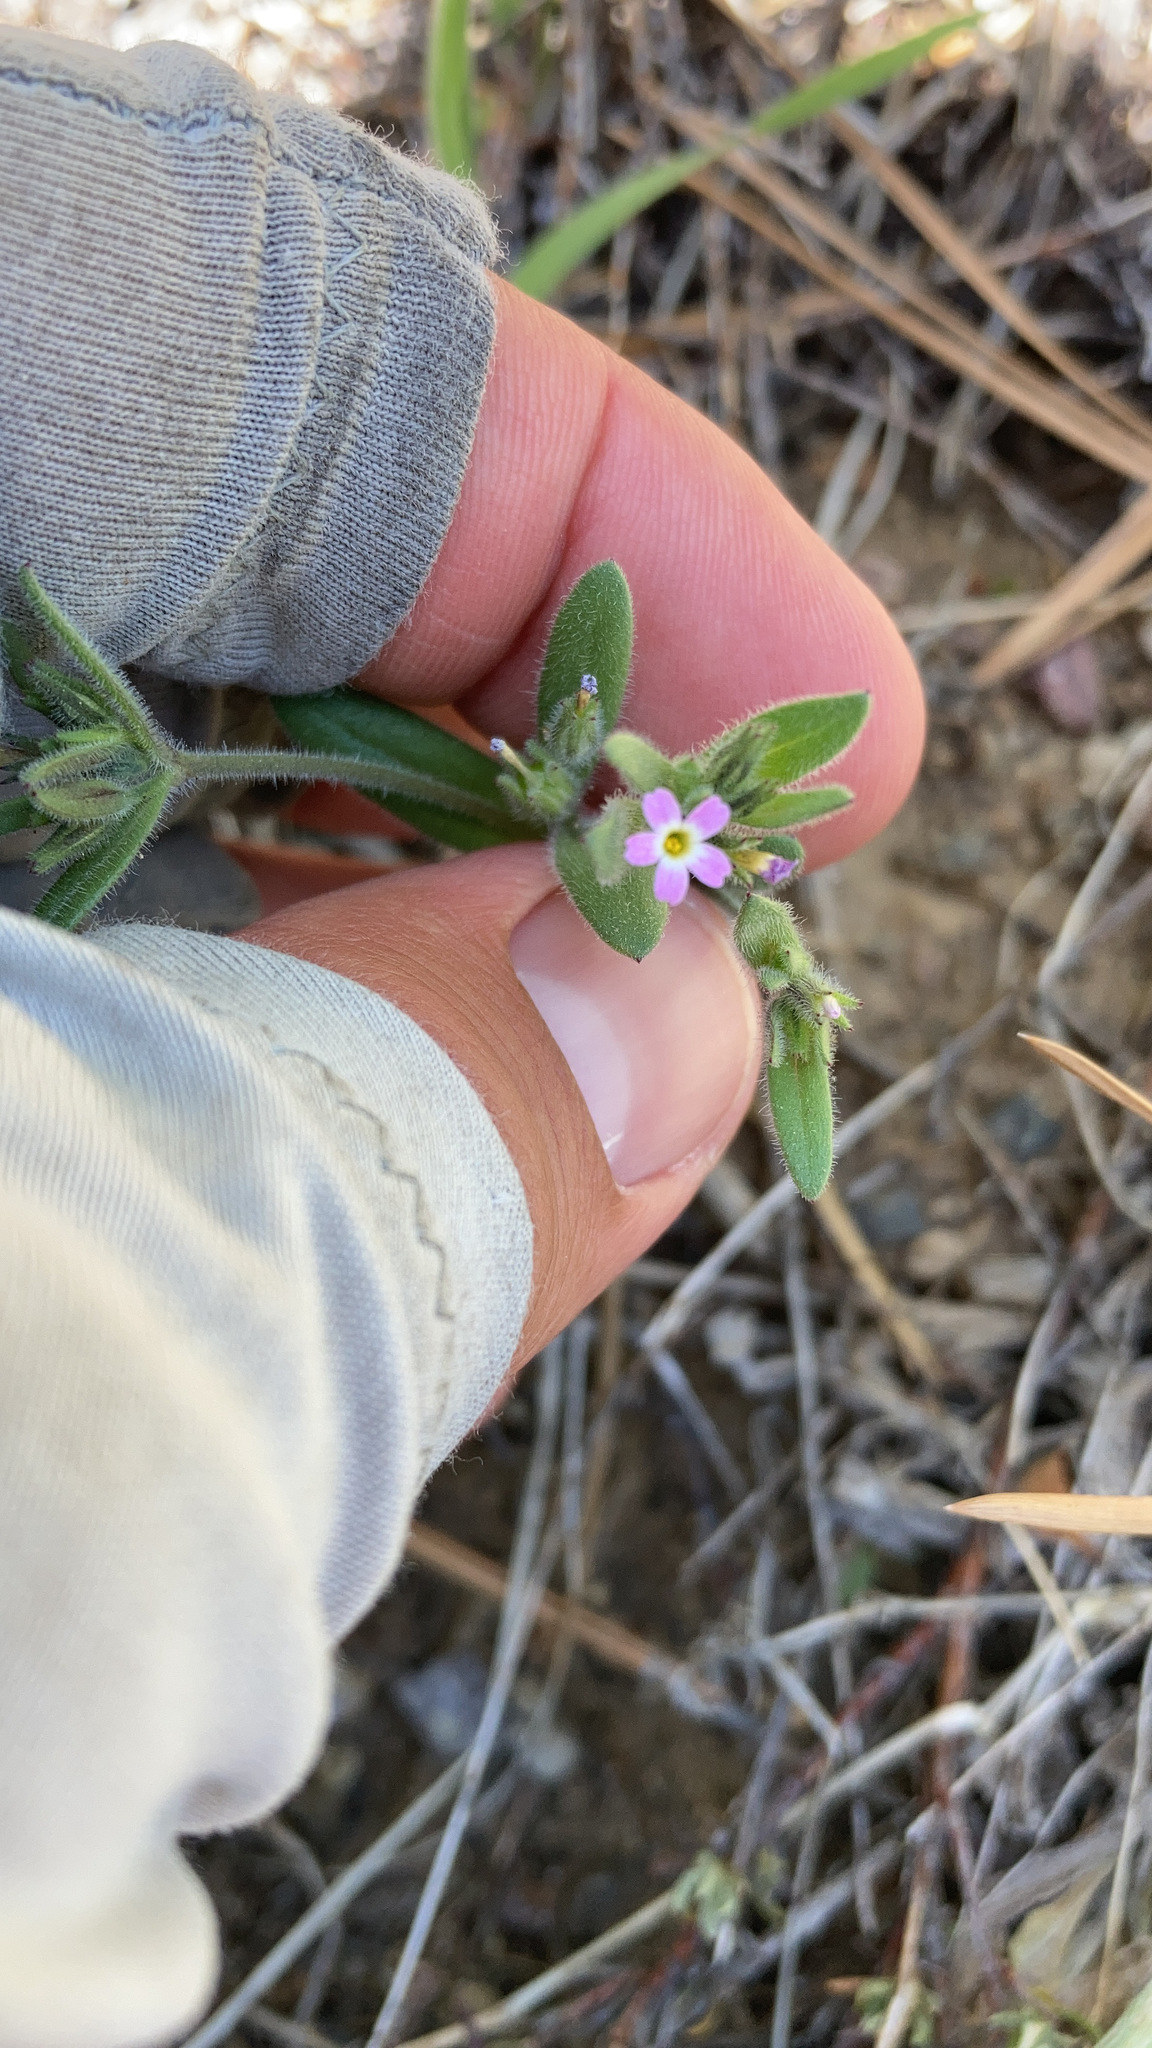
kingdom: Plantae
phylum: Tracheophyta
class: Magnoliopsida
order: Ericales
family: Polemoniaceae
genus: Phlox
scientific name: Phlox gracilis
